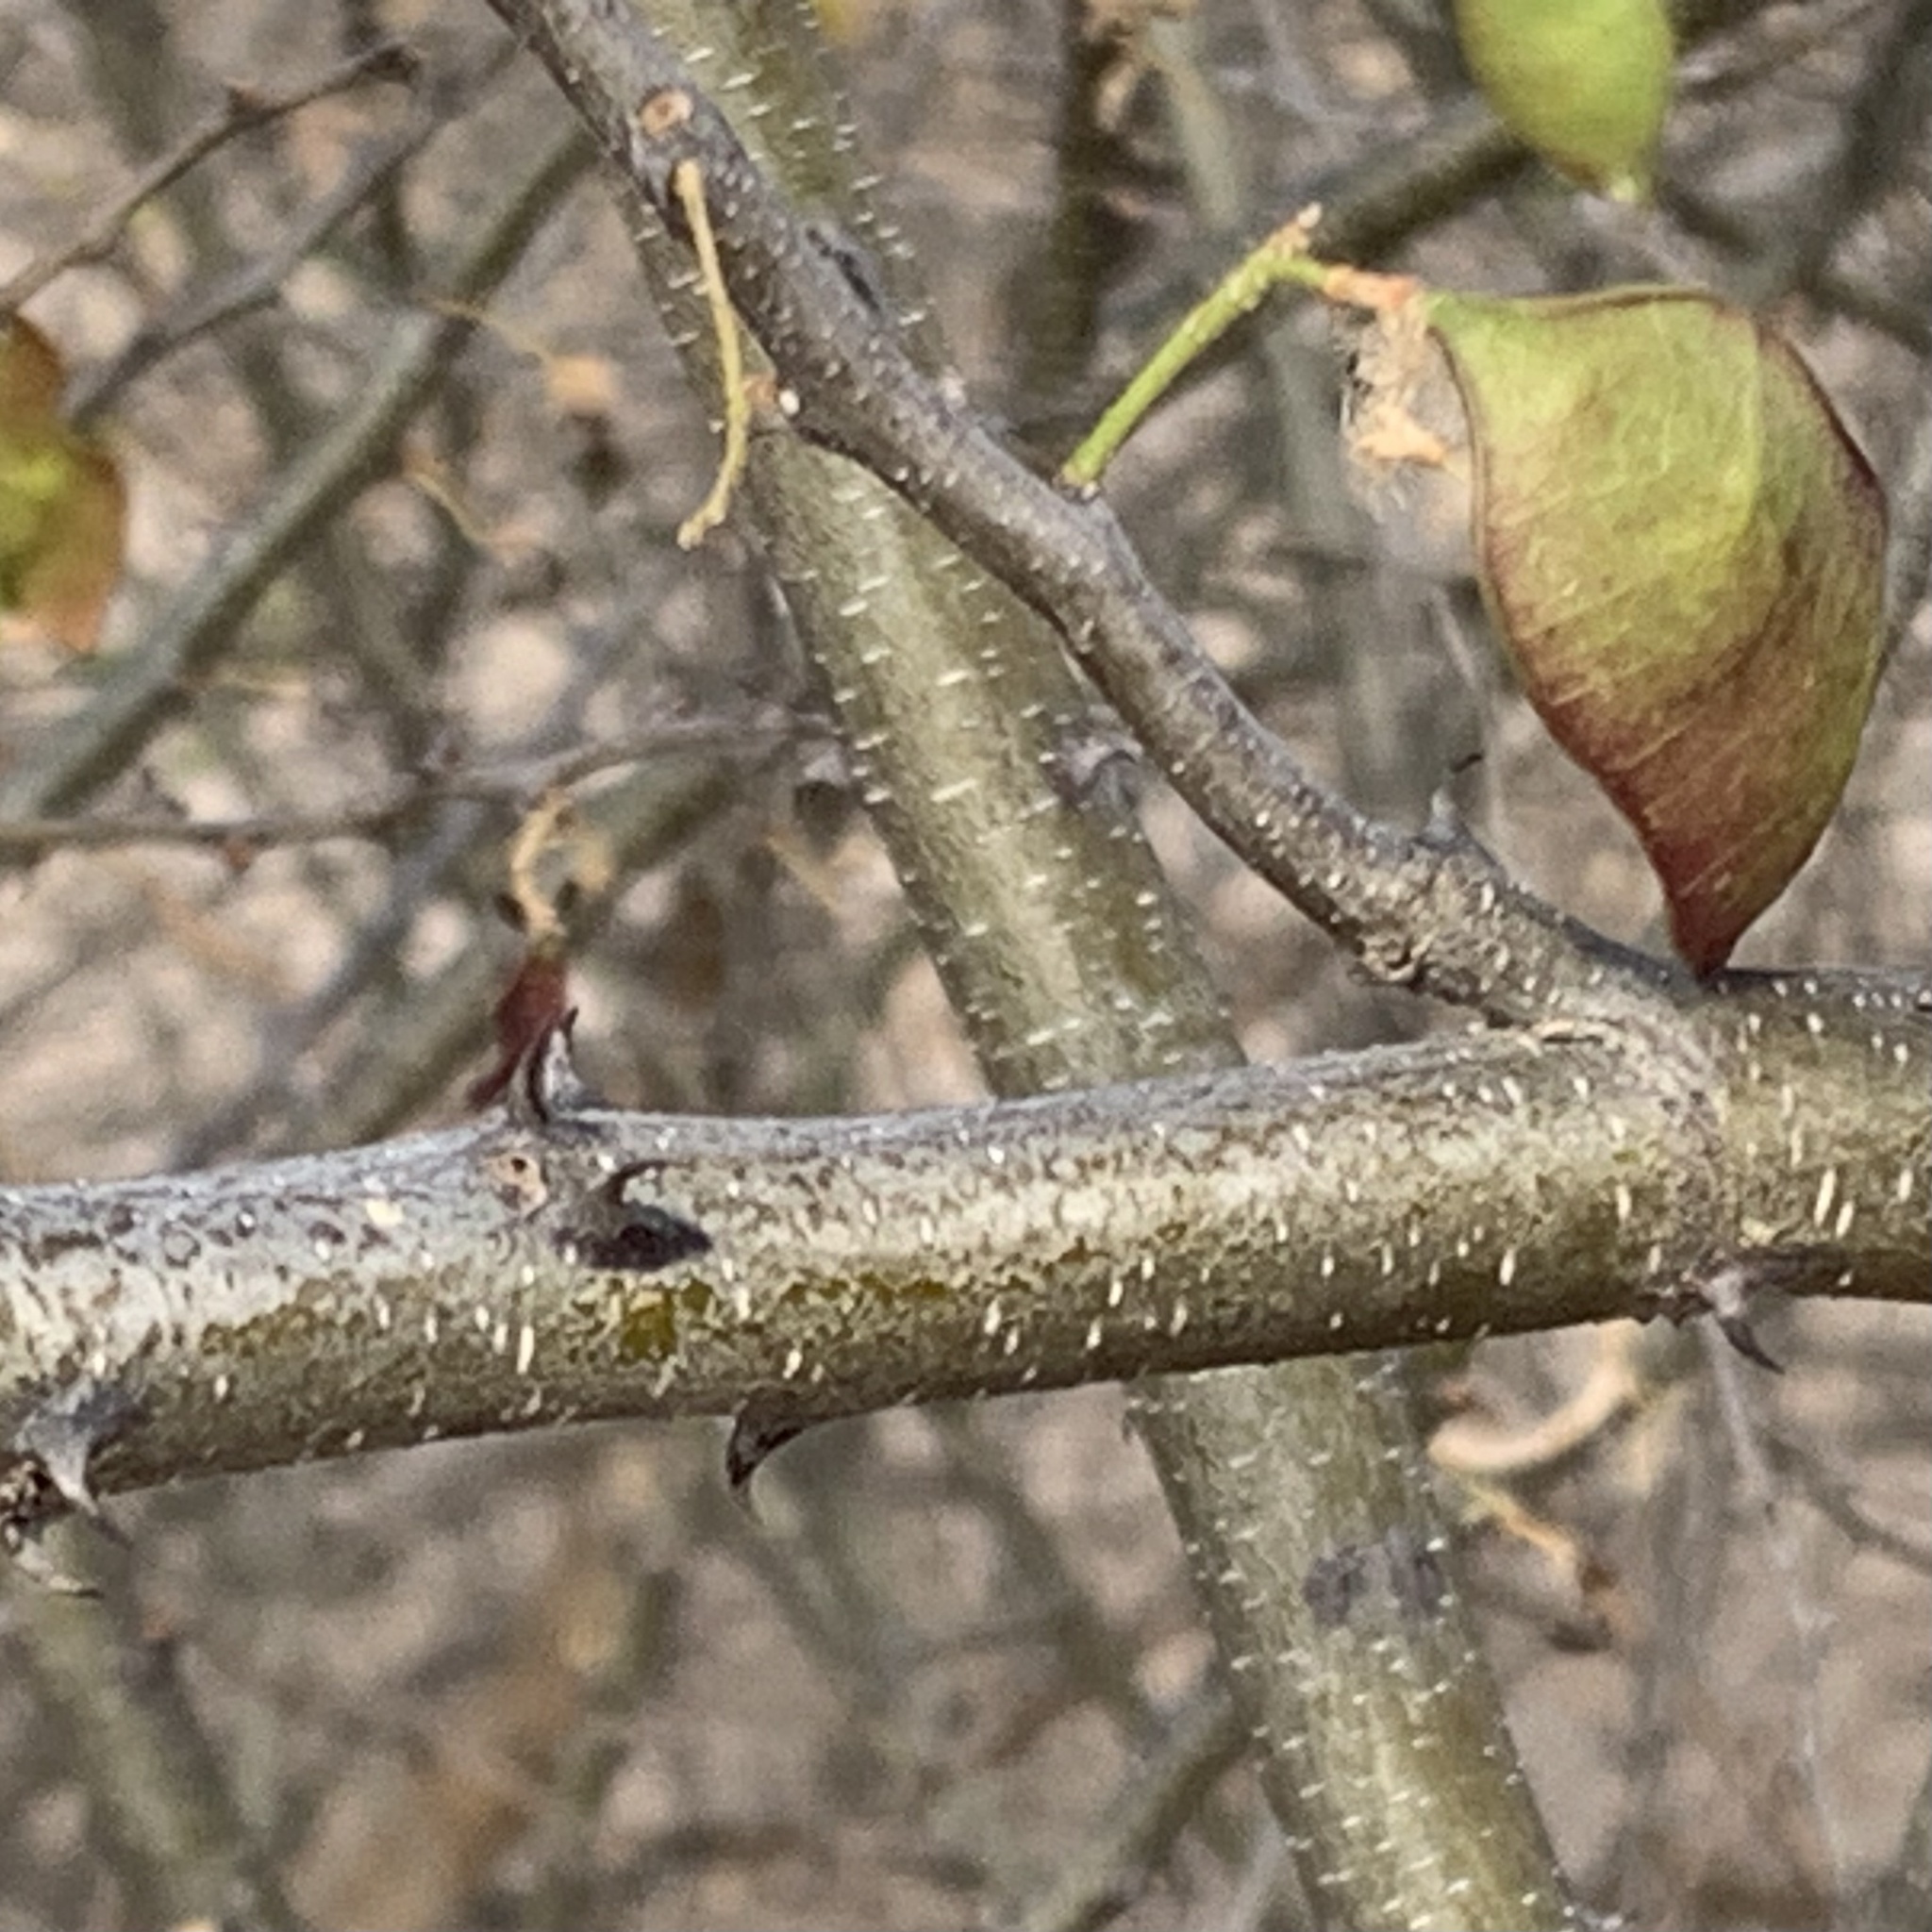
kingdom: Plantae
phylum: Tracheophyta
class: Magnoliopsida
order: Fabales
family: Fabaceae
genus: Senegalia
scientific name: Senegalia mellifera
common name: Hookthorn
